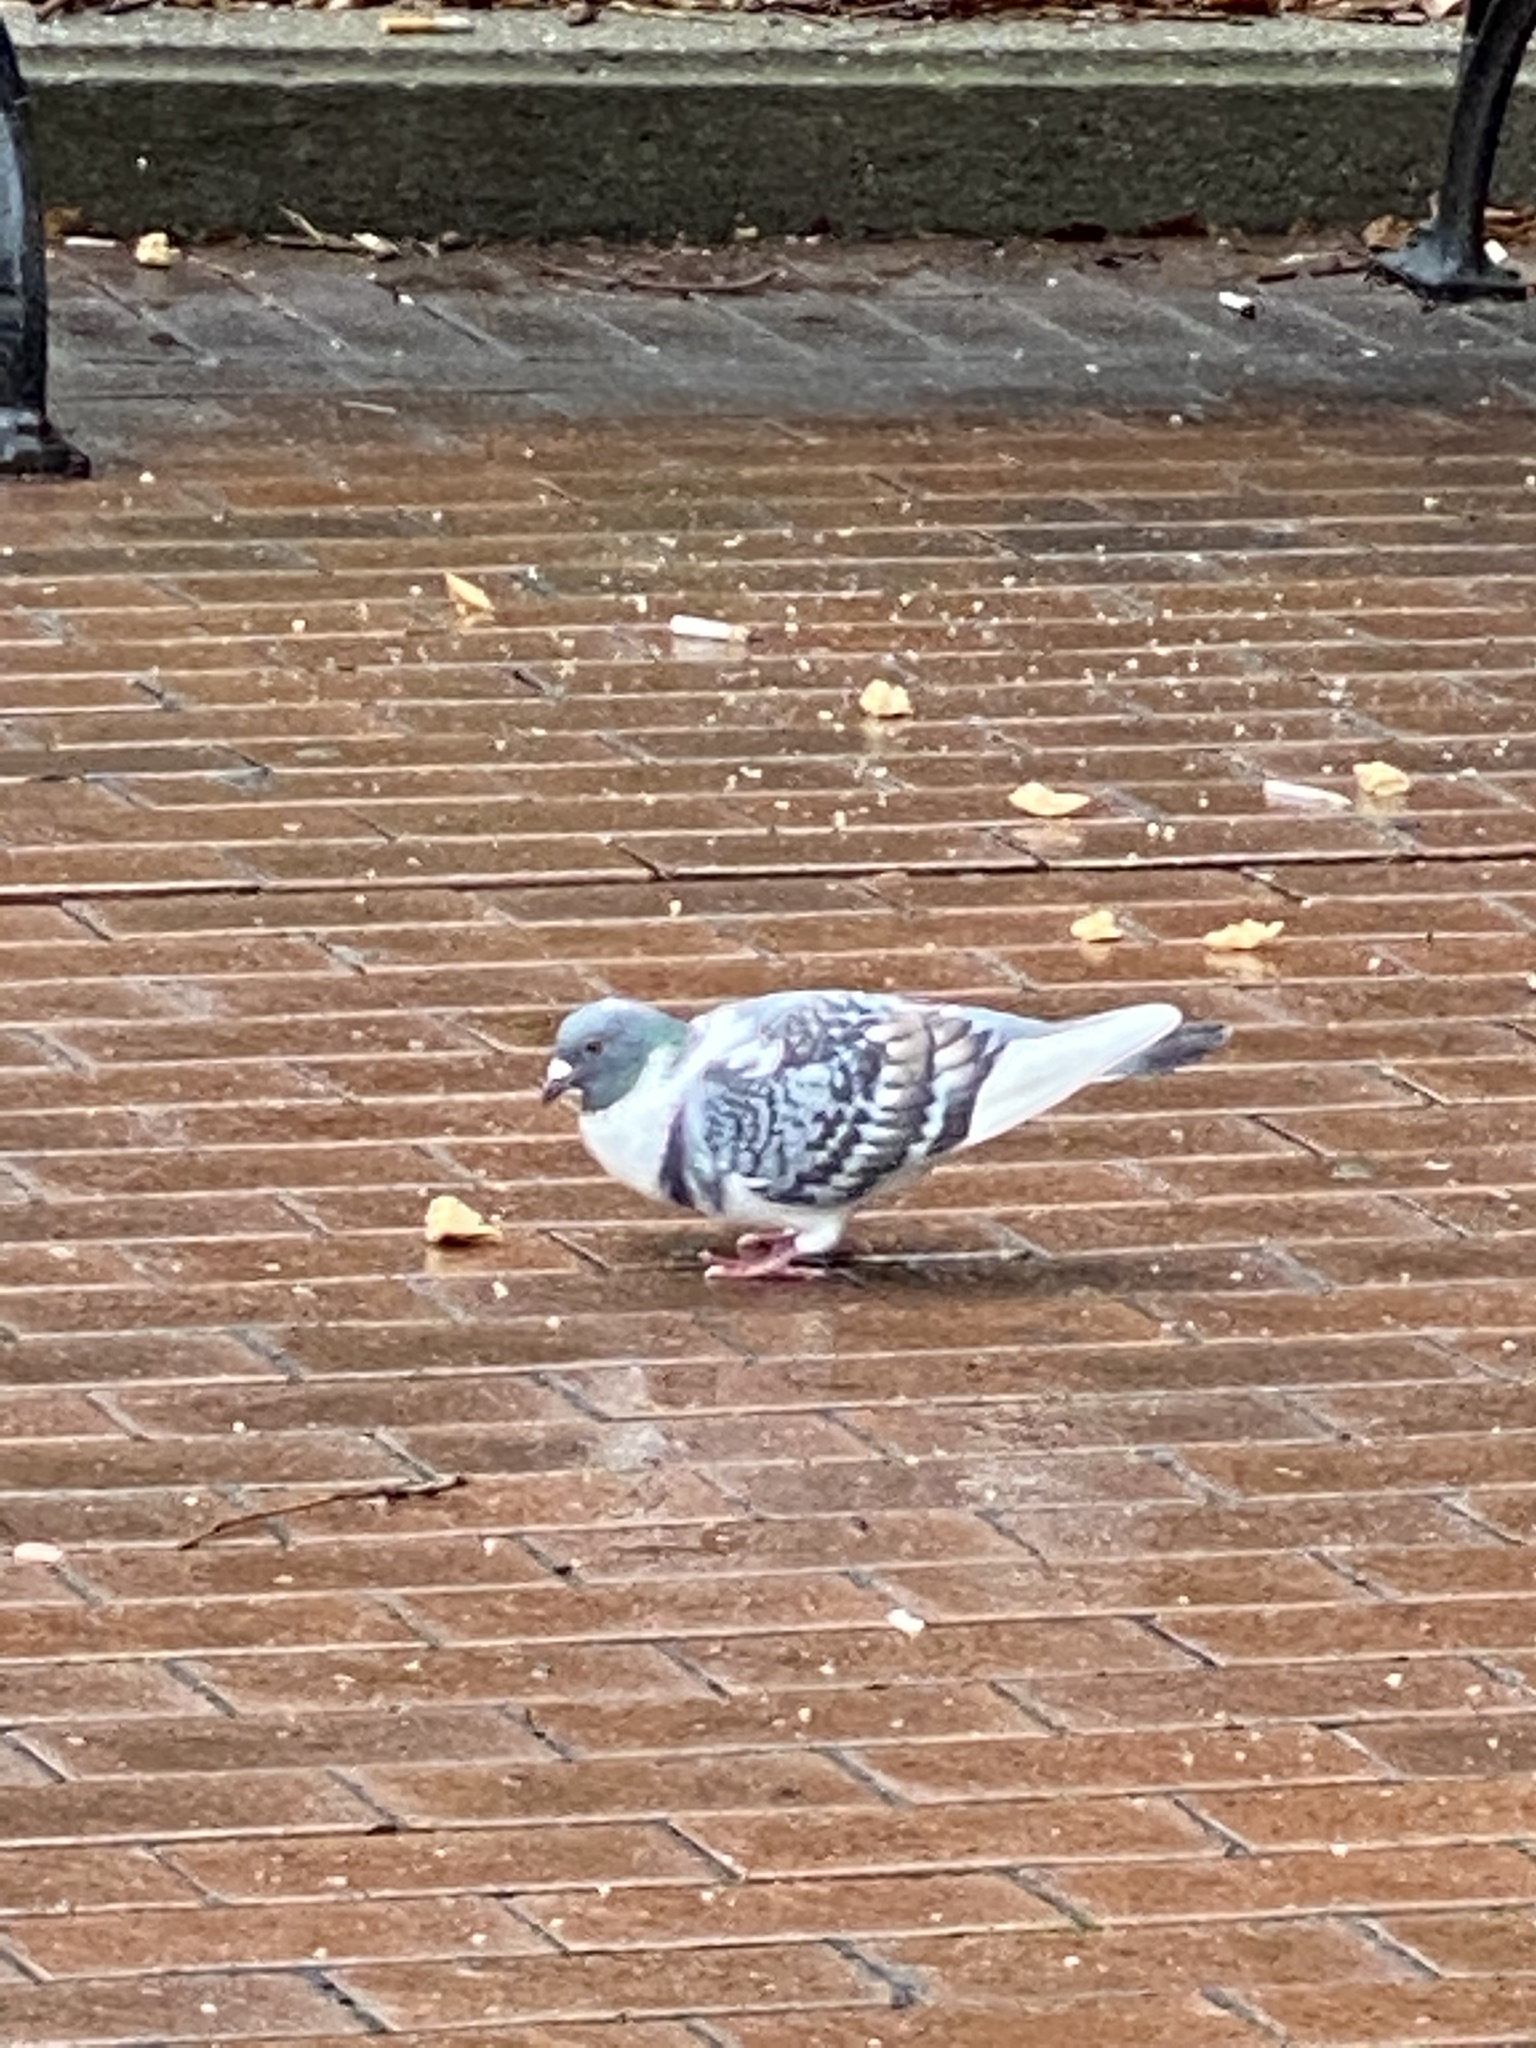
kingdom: Animalia
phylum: Chordata
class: Aves
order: Columbiformes
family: Columbidae
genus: Columba
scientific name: Columba livia
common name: Rock pigeon
